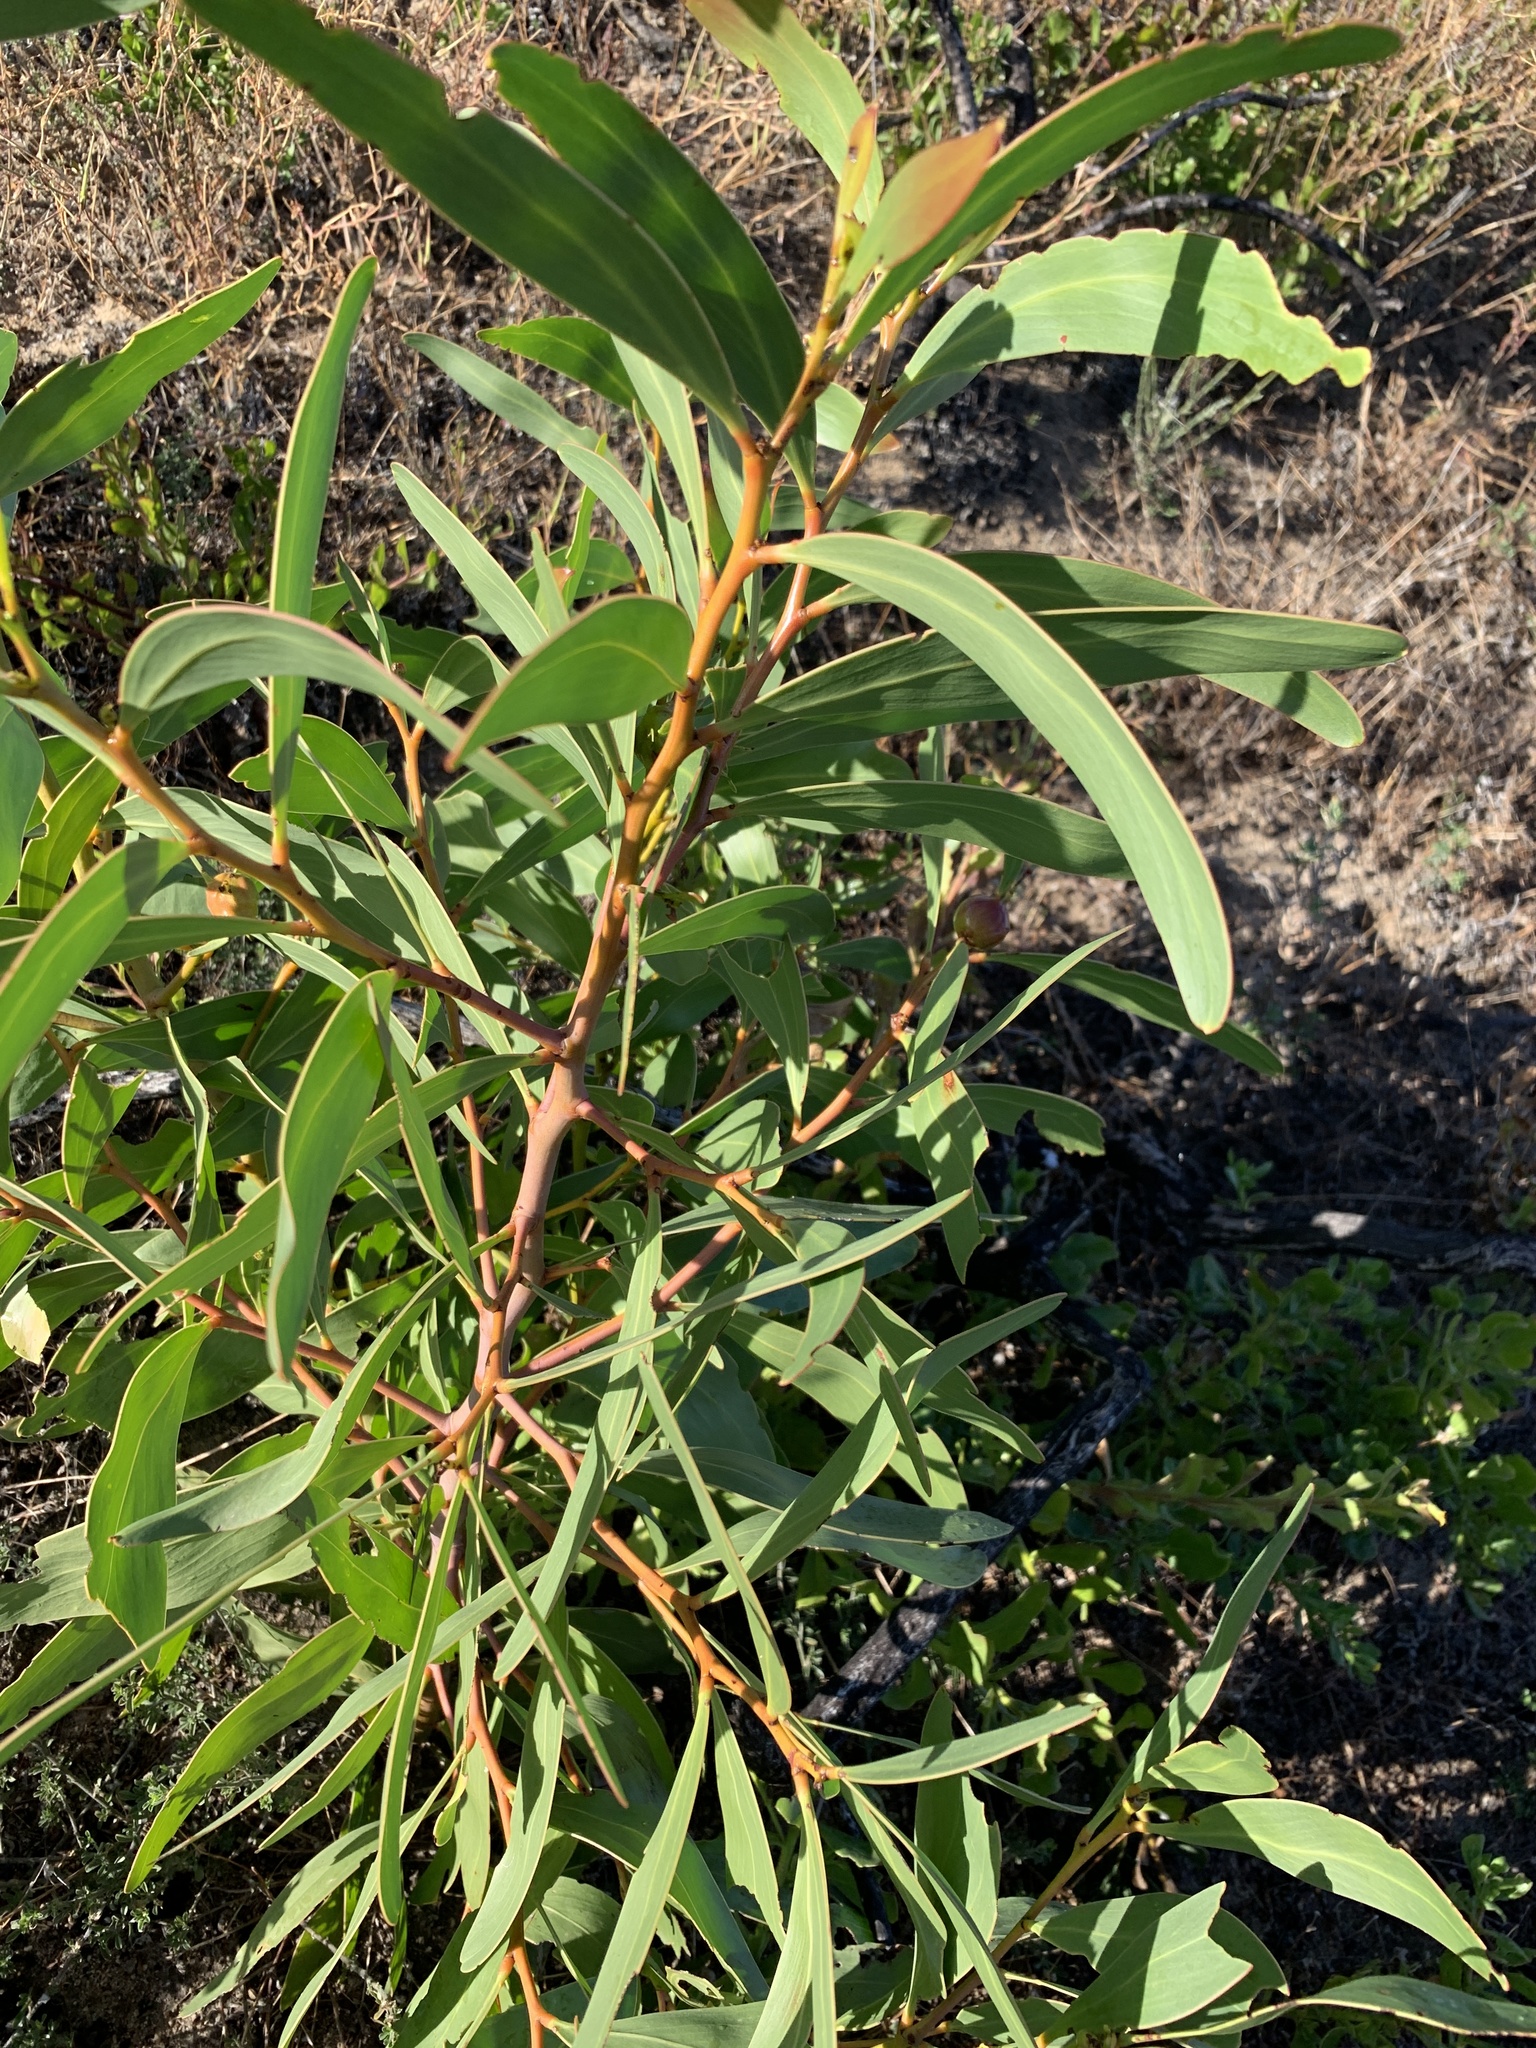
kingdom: Plantae
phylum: Tracheophyta
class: Magnoliopsida
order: Fabales
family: Fabaceae
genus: Acacia
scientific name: Acacia pycnantha
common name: Golden wattle
